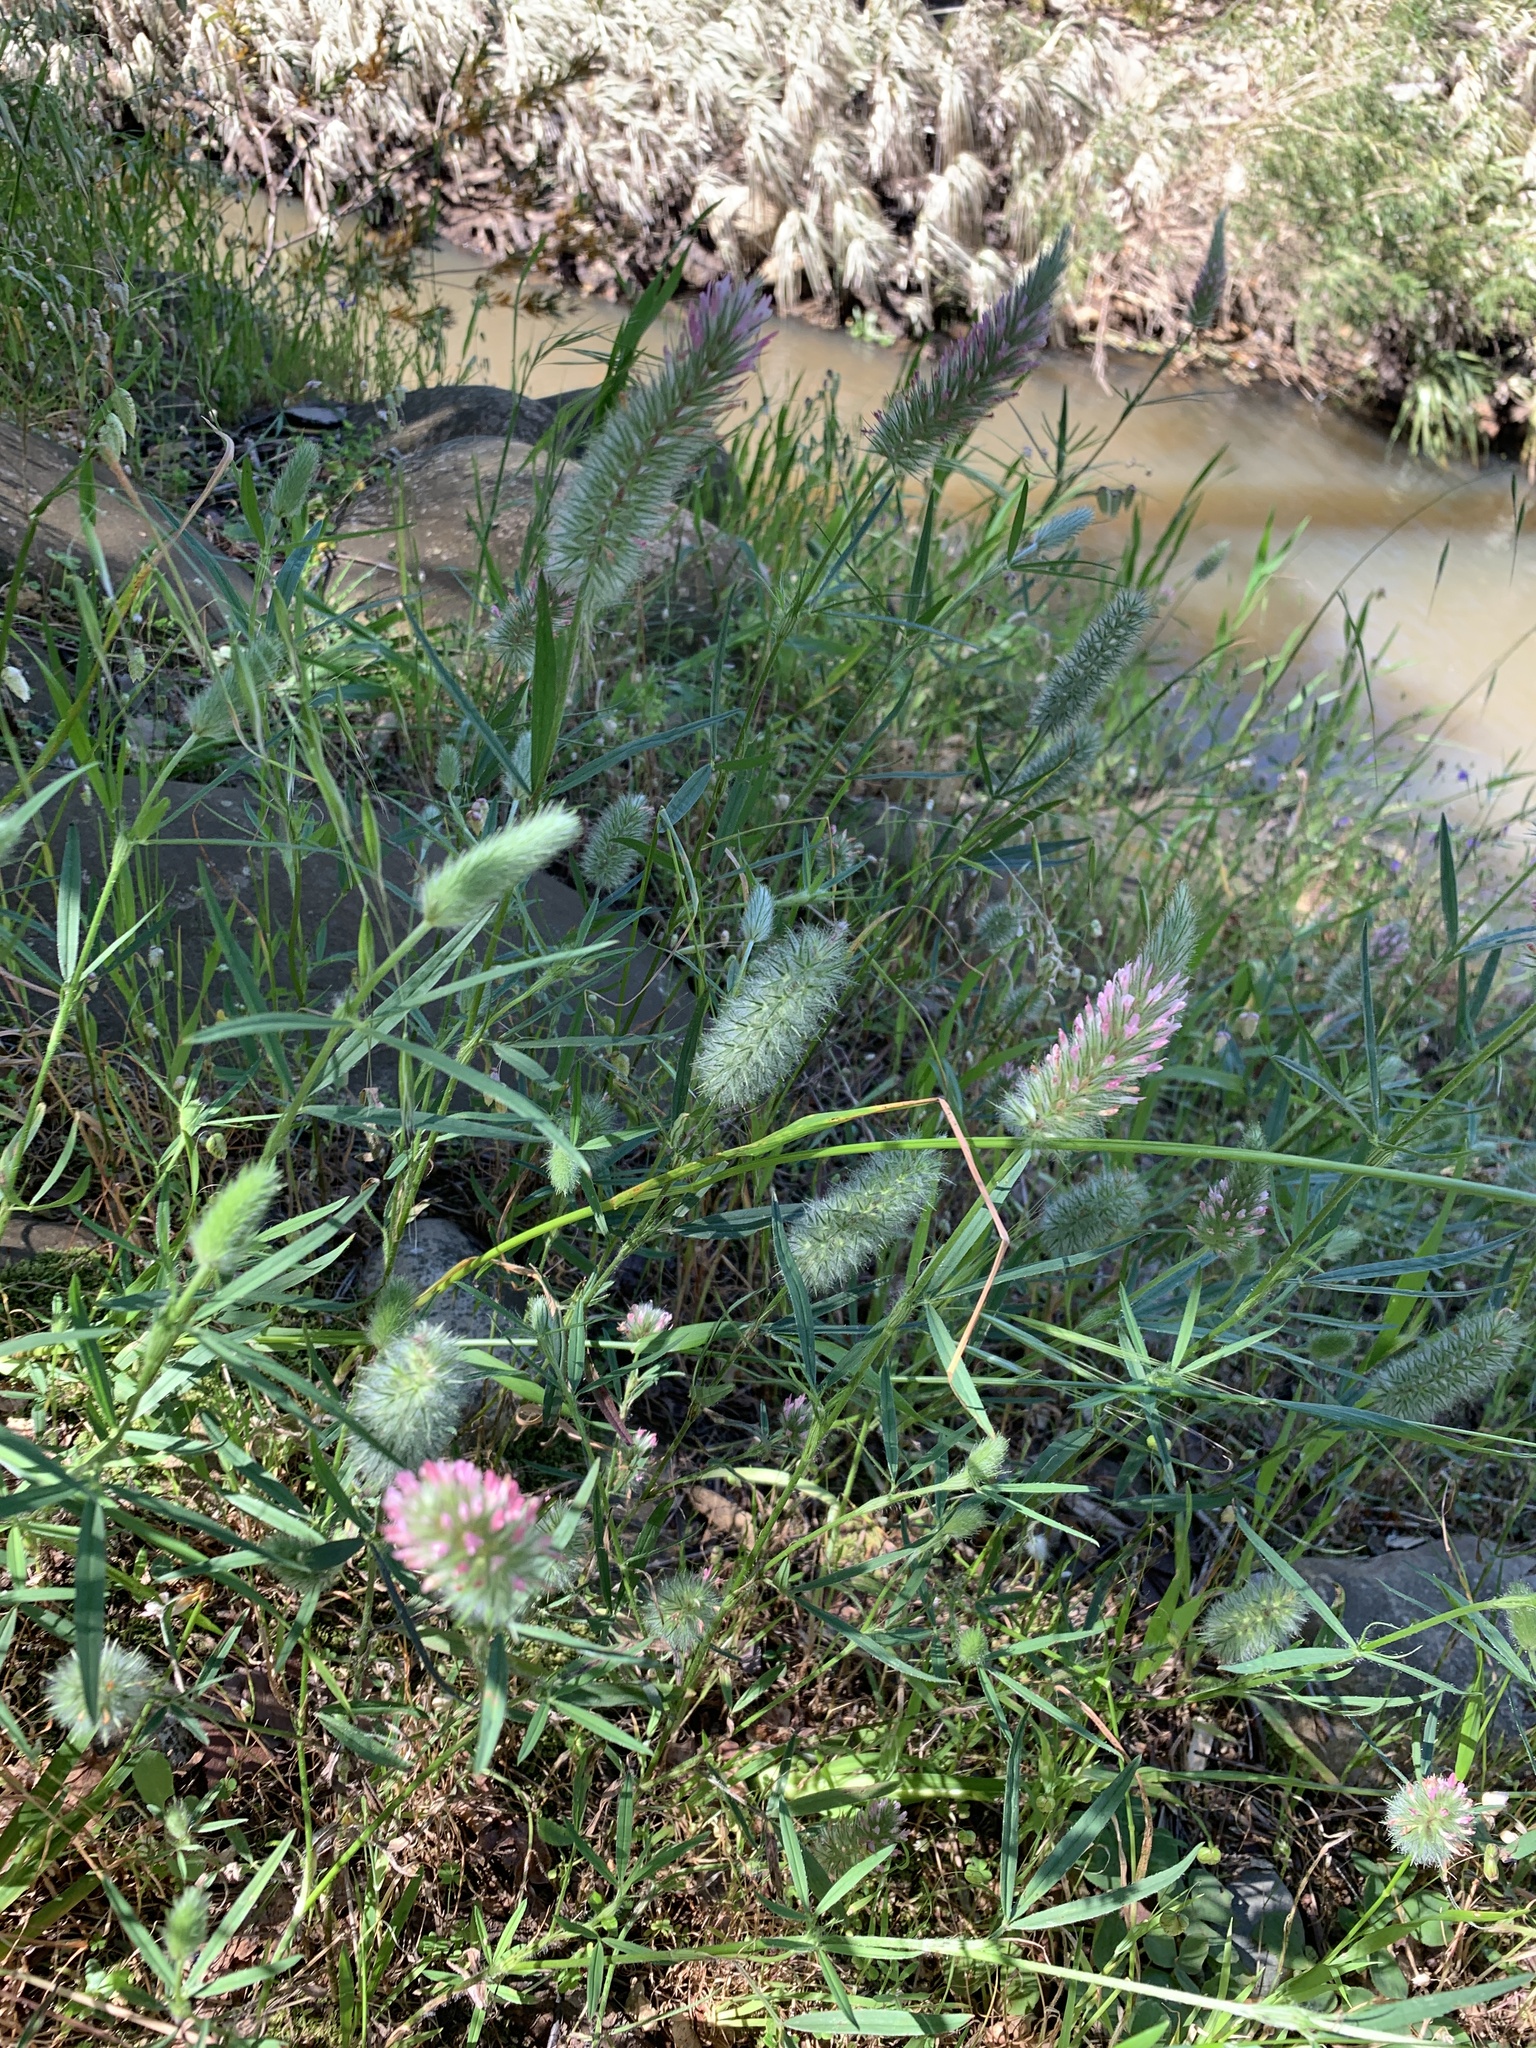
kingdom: Plantae
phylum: Tracheophyta
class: Magnoliopsida
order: Fabales
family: Fabaceae
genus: Trifolium
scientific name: Trifolium angustifolium
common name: Narrow clover
